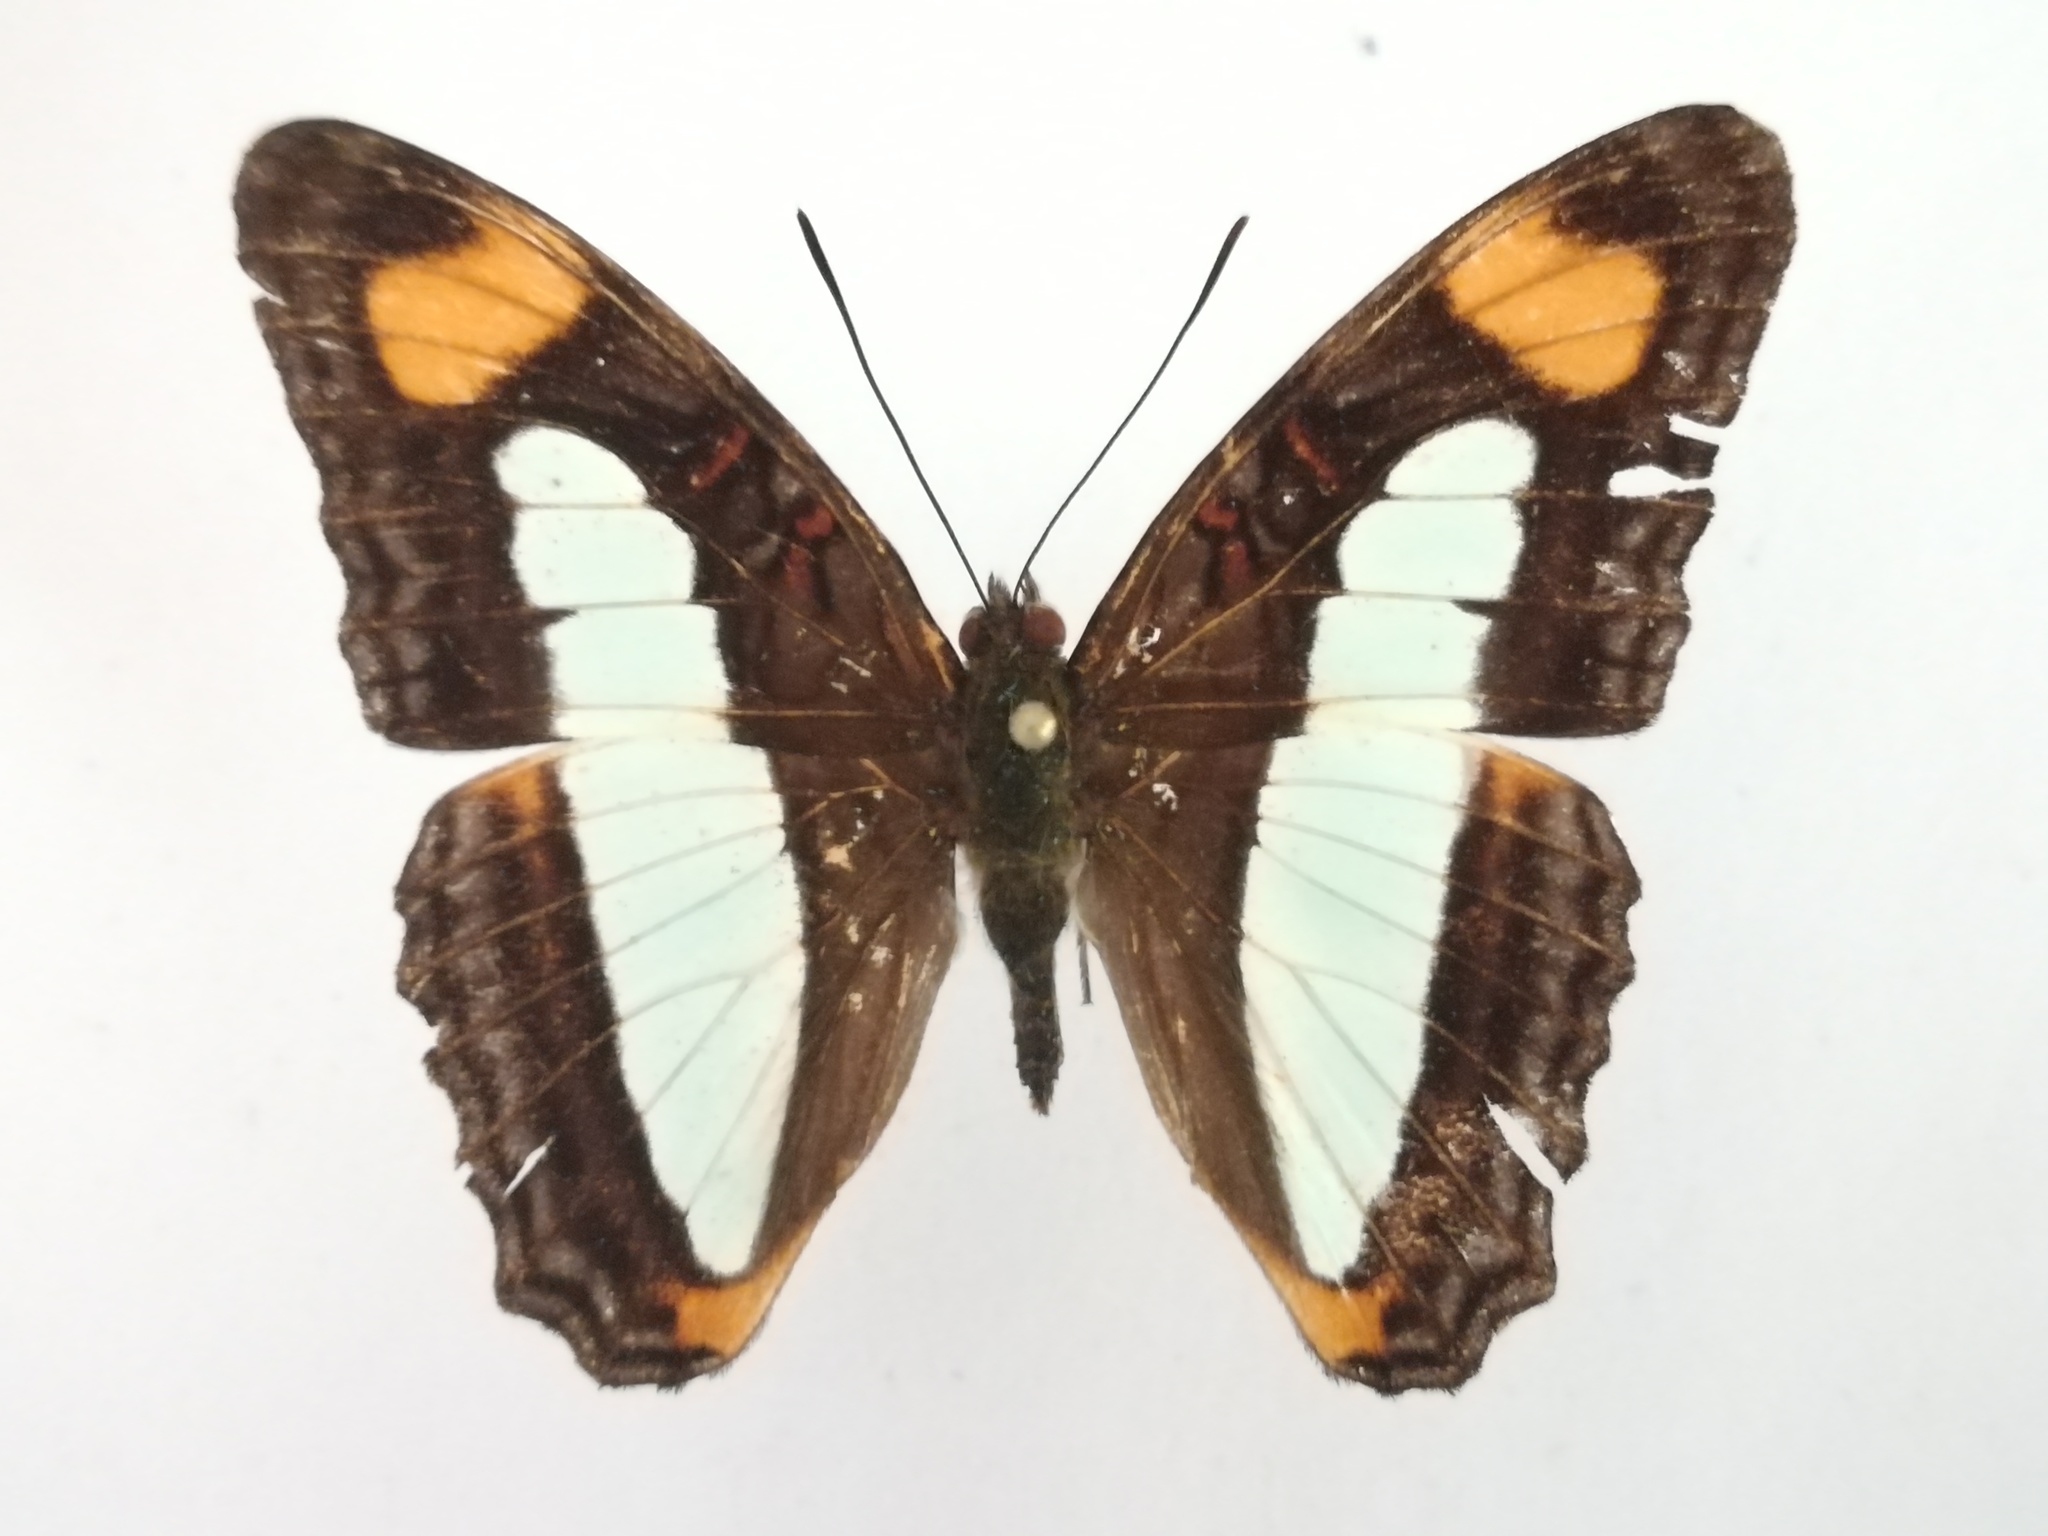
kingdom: Animalia
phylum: Arthropoda
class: Insecta
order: Lepidoptera
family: Nymphalidae
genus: Limenitis
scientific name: Limenitis serpa
